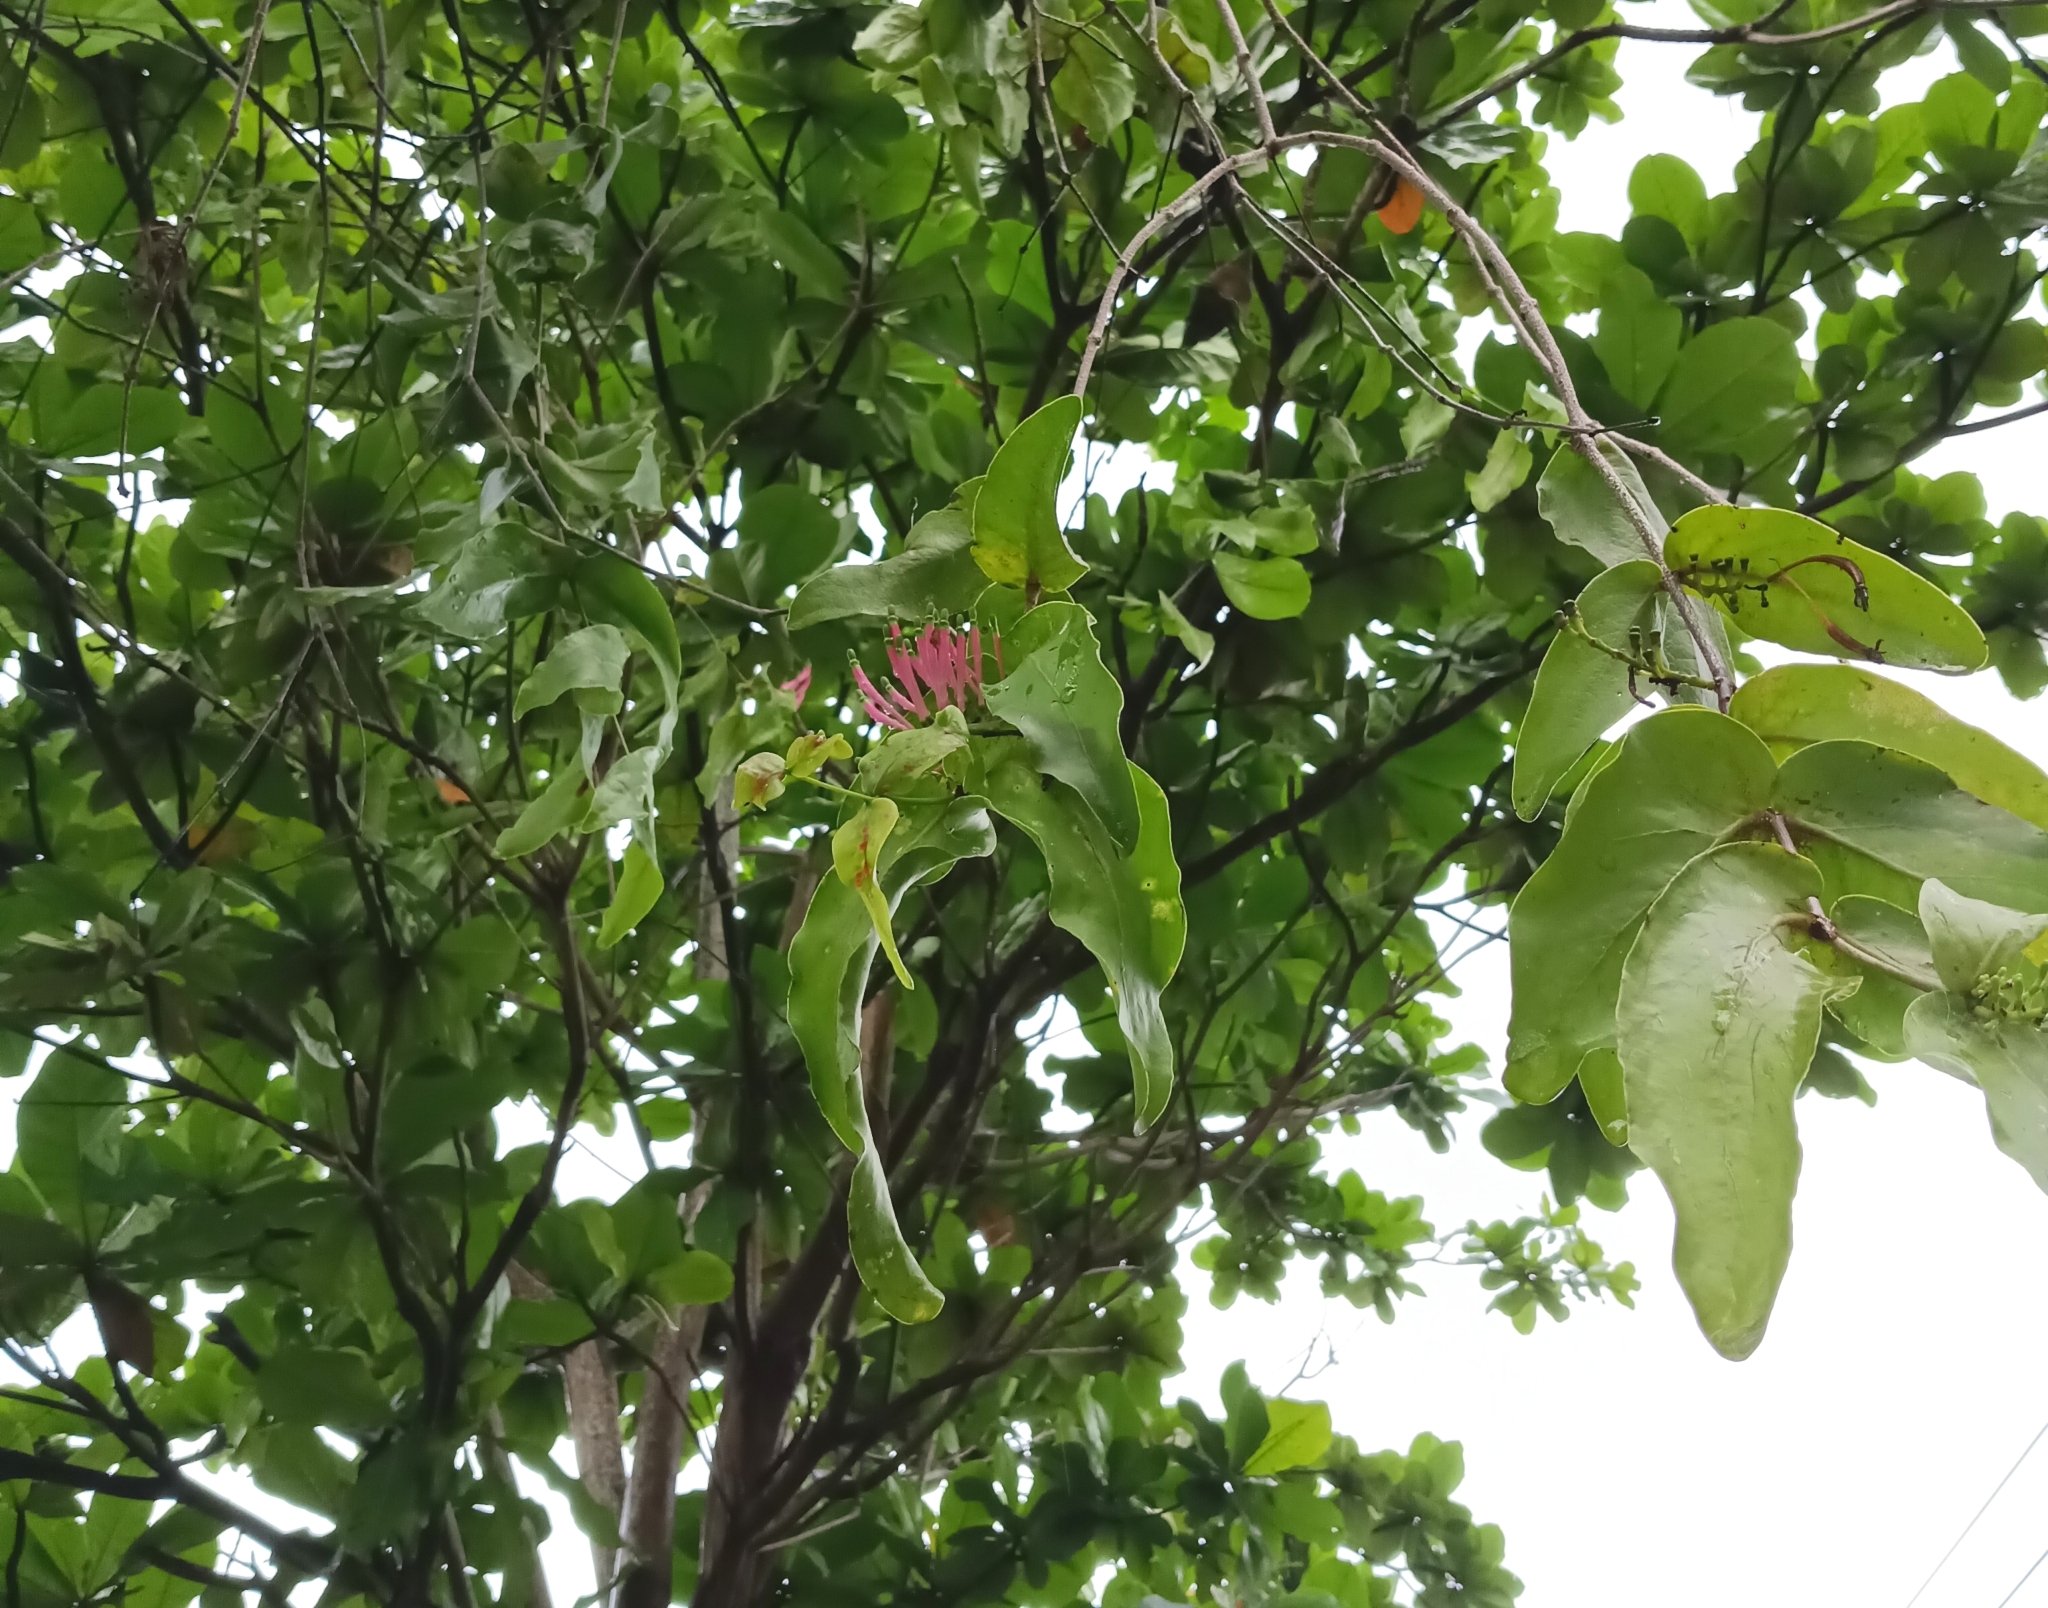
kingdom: Plantae
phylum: Tracheophyta
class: Magnoliopsida
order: Santalales
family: Loranthaceae
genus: Dendrophthoe
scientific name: Dendrophthoe falcata
